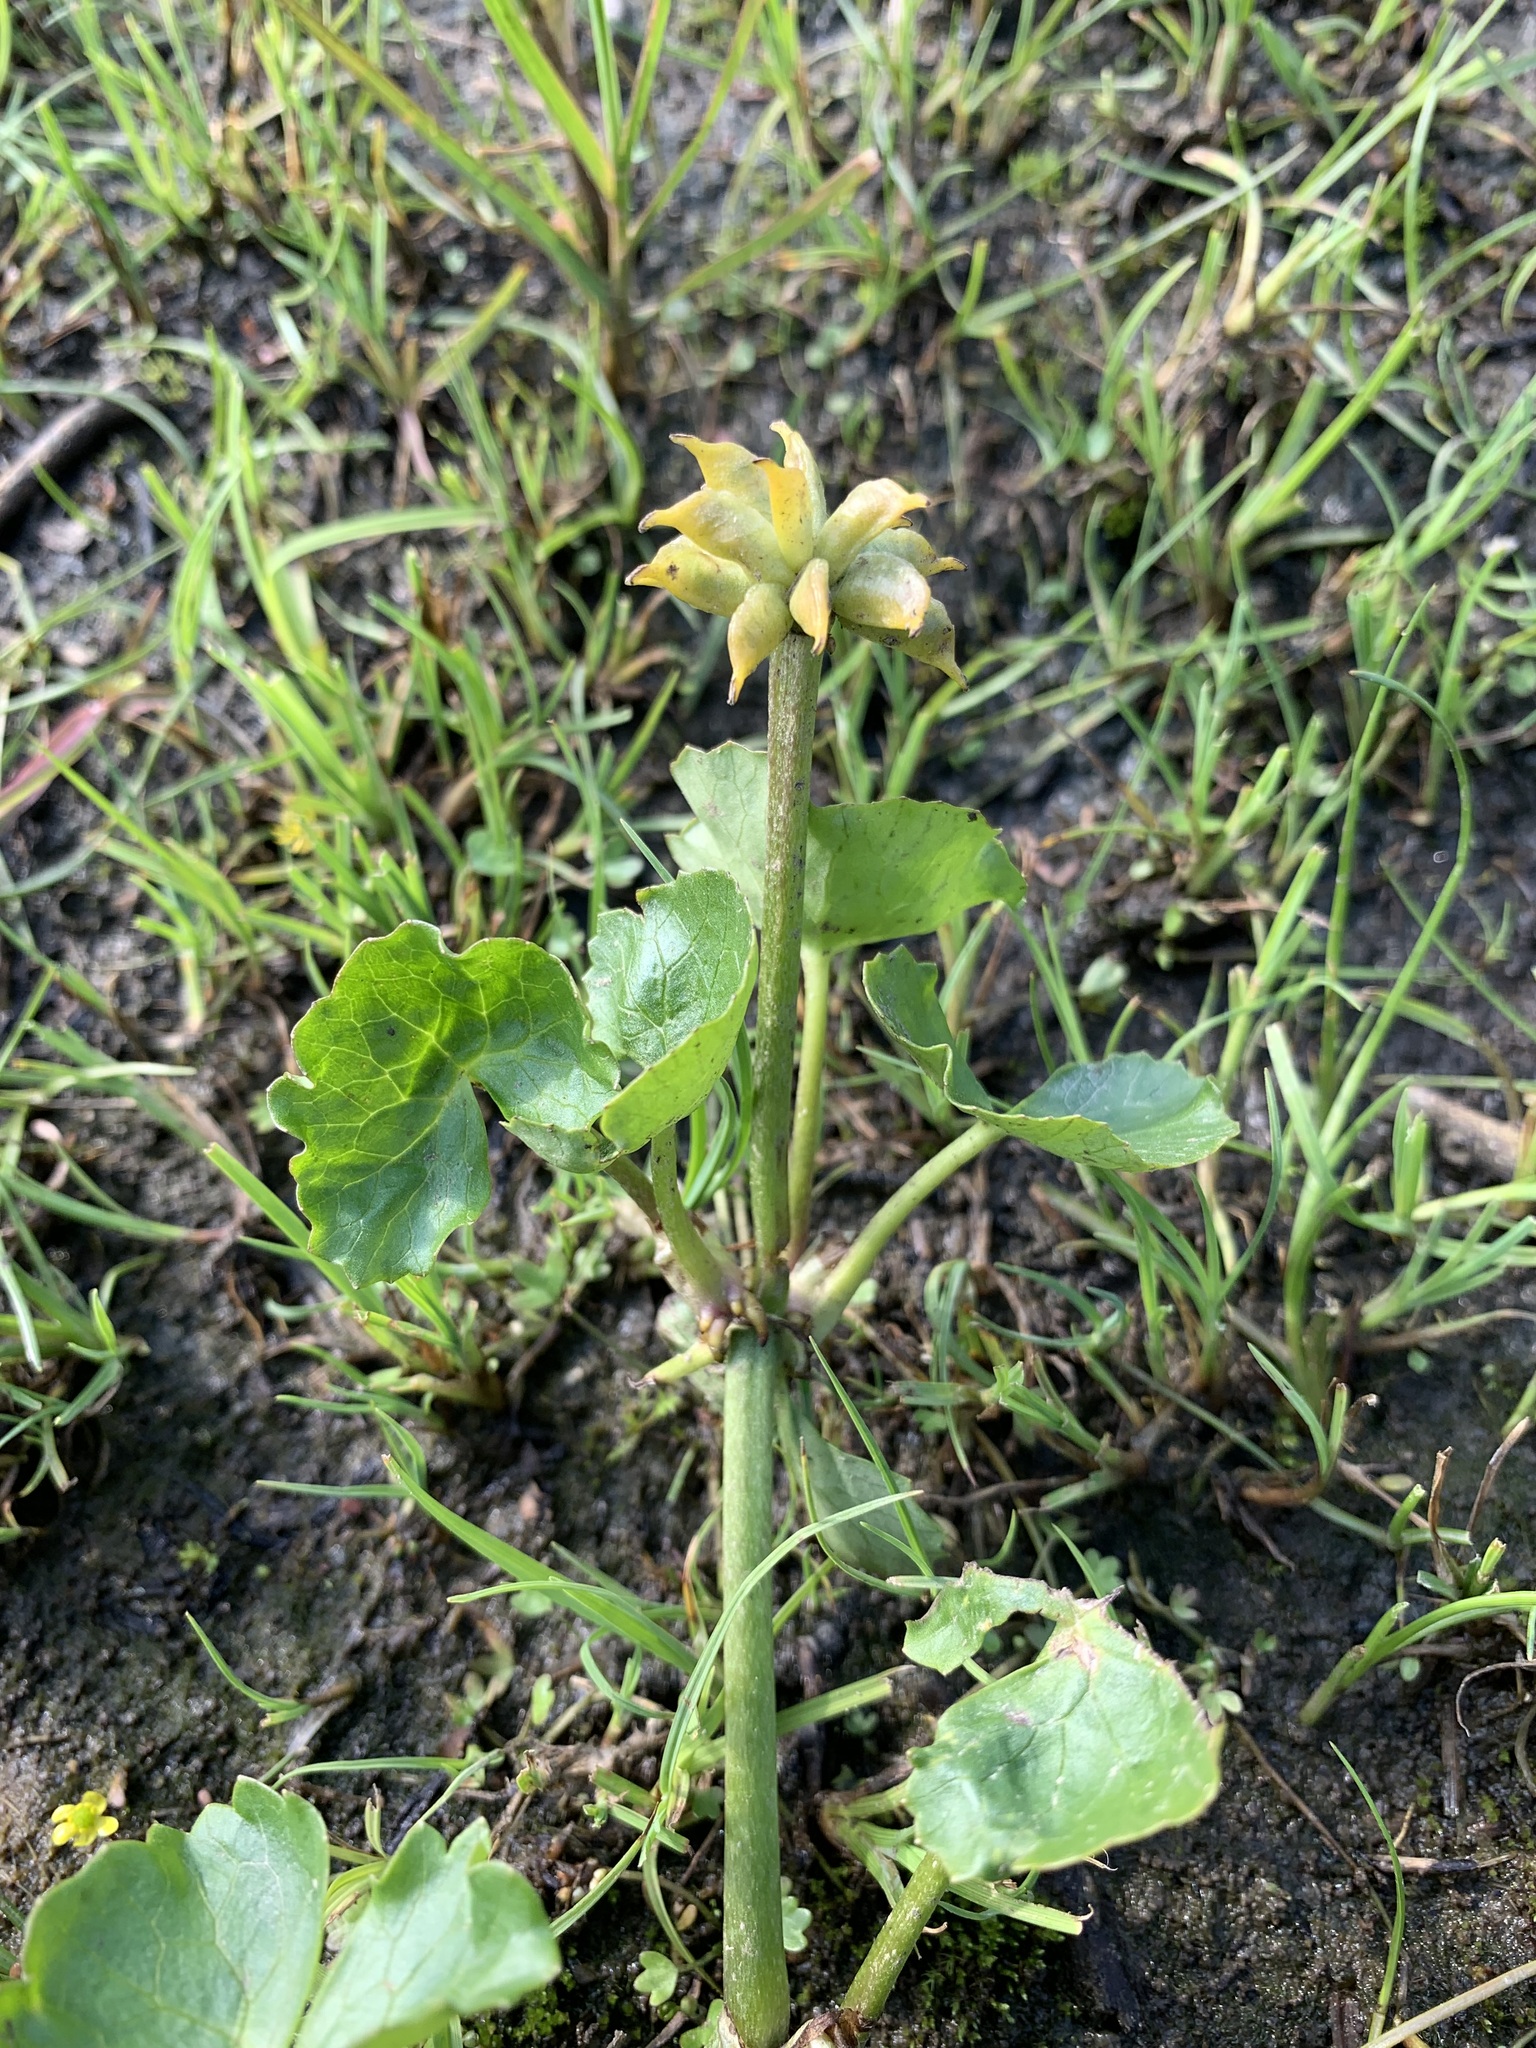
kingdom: Plantae
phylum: Tracheophyta
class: Magnoliopsida
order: Ranunculales
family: Ranunculaceae
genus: Caltha
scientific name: Caltha palustris
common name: Marsh marigold
